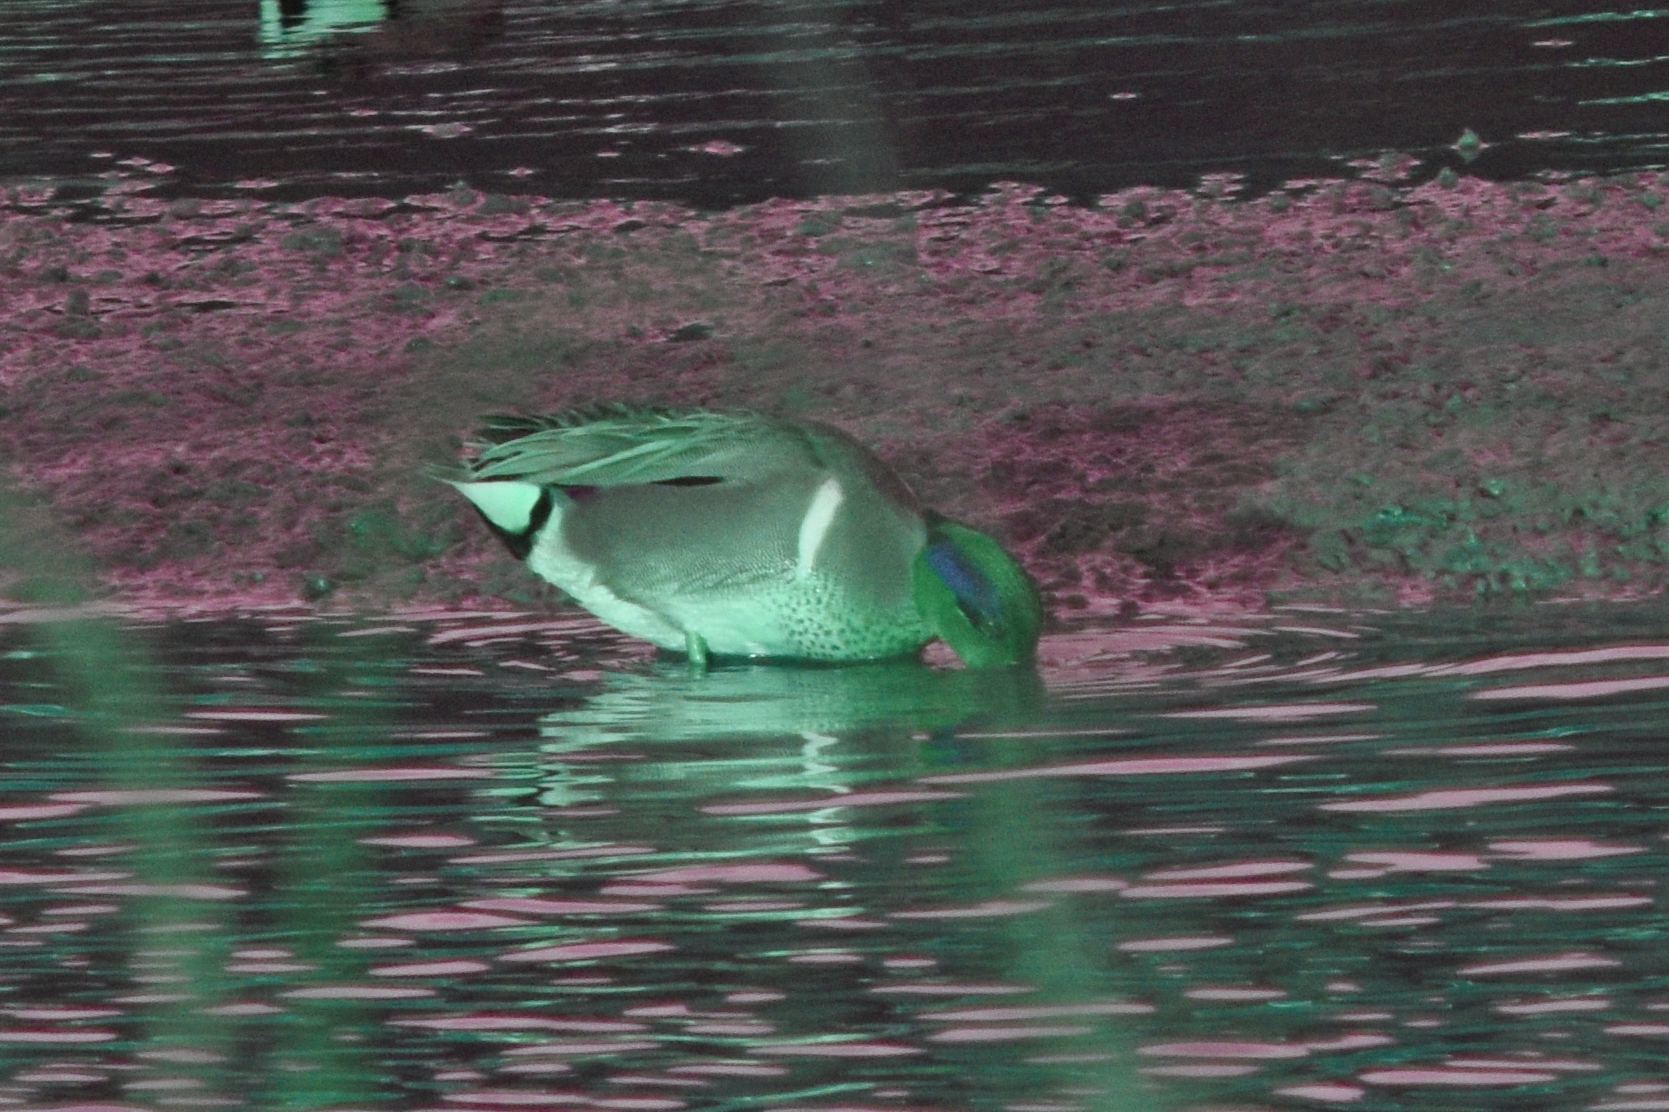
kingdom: Animalia
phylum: Chordata
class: Aves
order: Anseriformes
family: Anatidae
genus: Anas
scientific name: Anas crecca
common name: Eurasian teal
